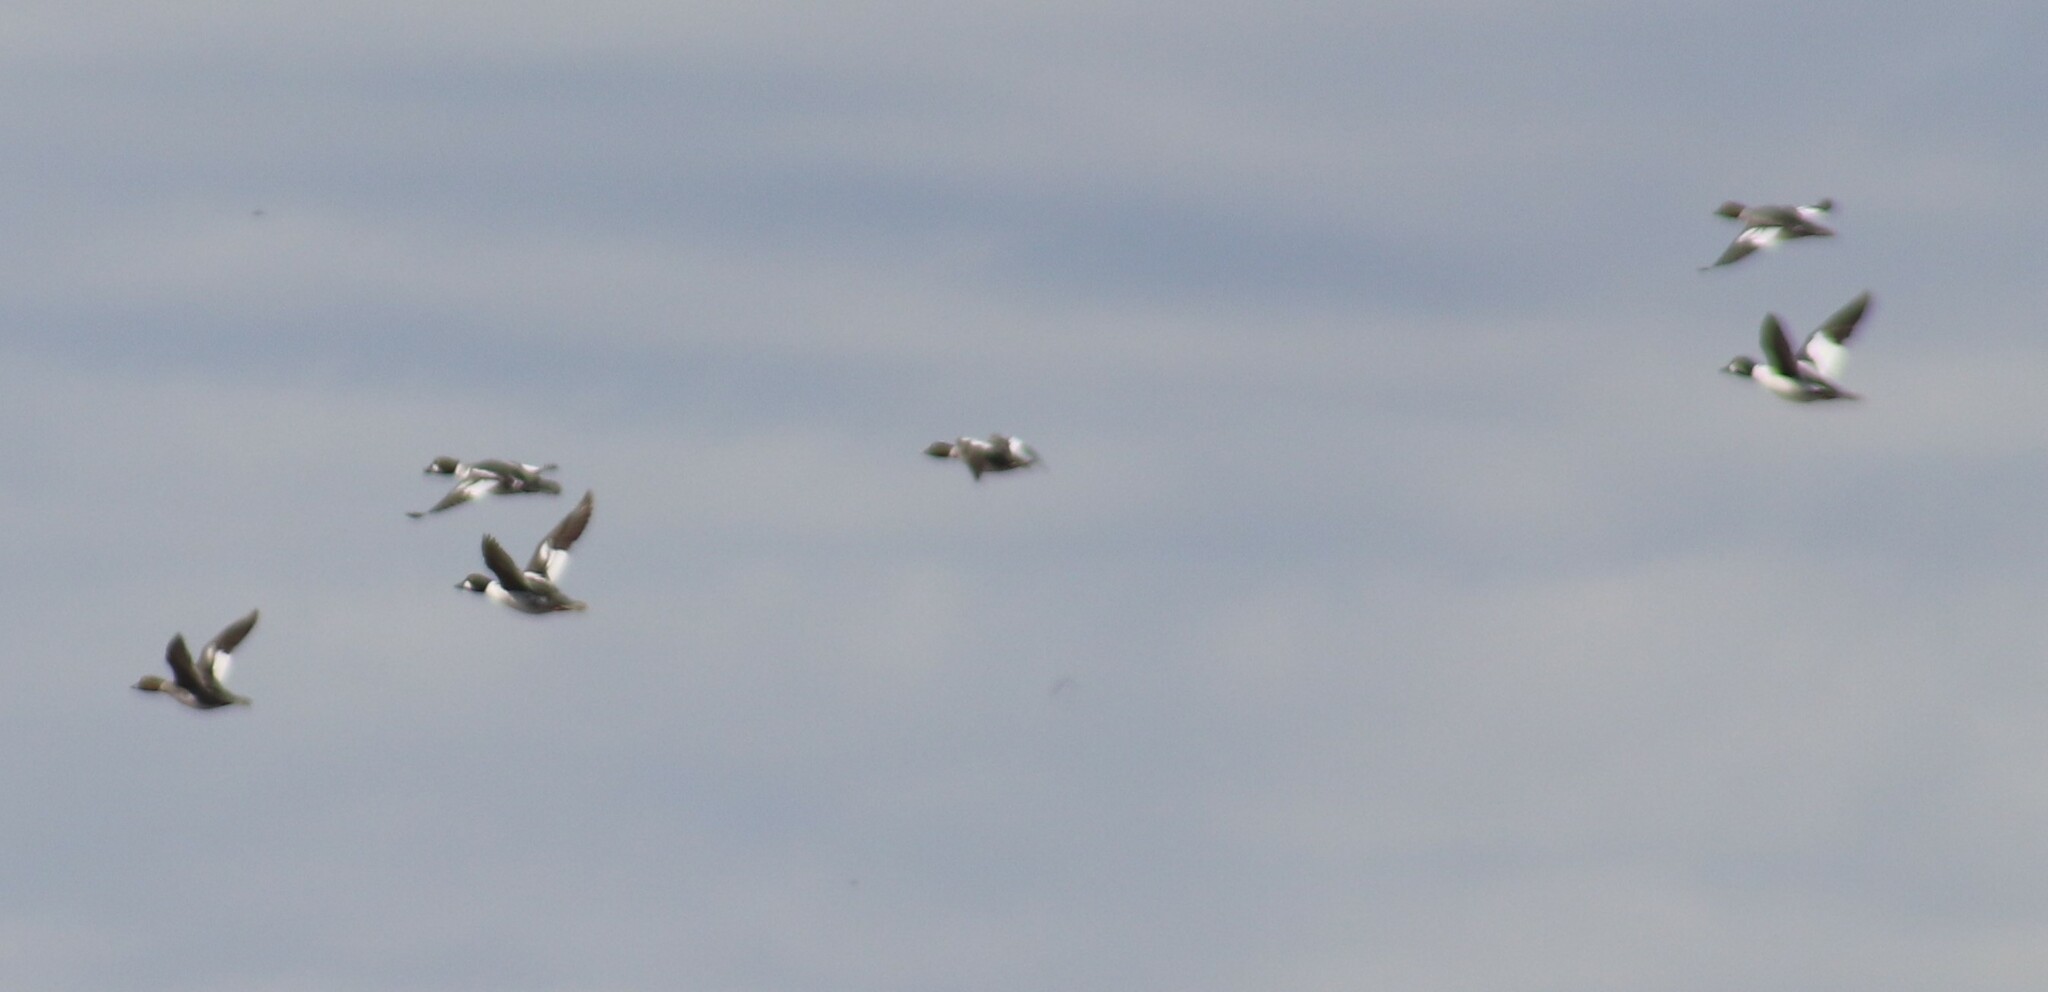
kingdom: Animalia
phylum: Chordata
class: Aves
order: Anseriformes
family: Anatidae
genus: Bucephala
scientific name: Bucephala clangula
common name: Common goldeneye
